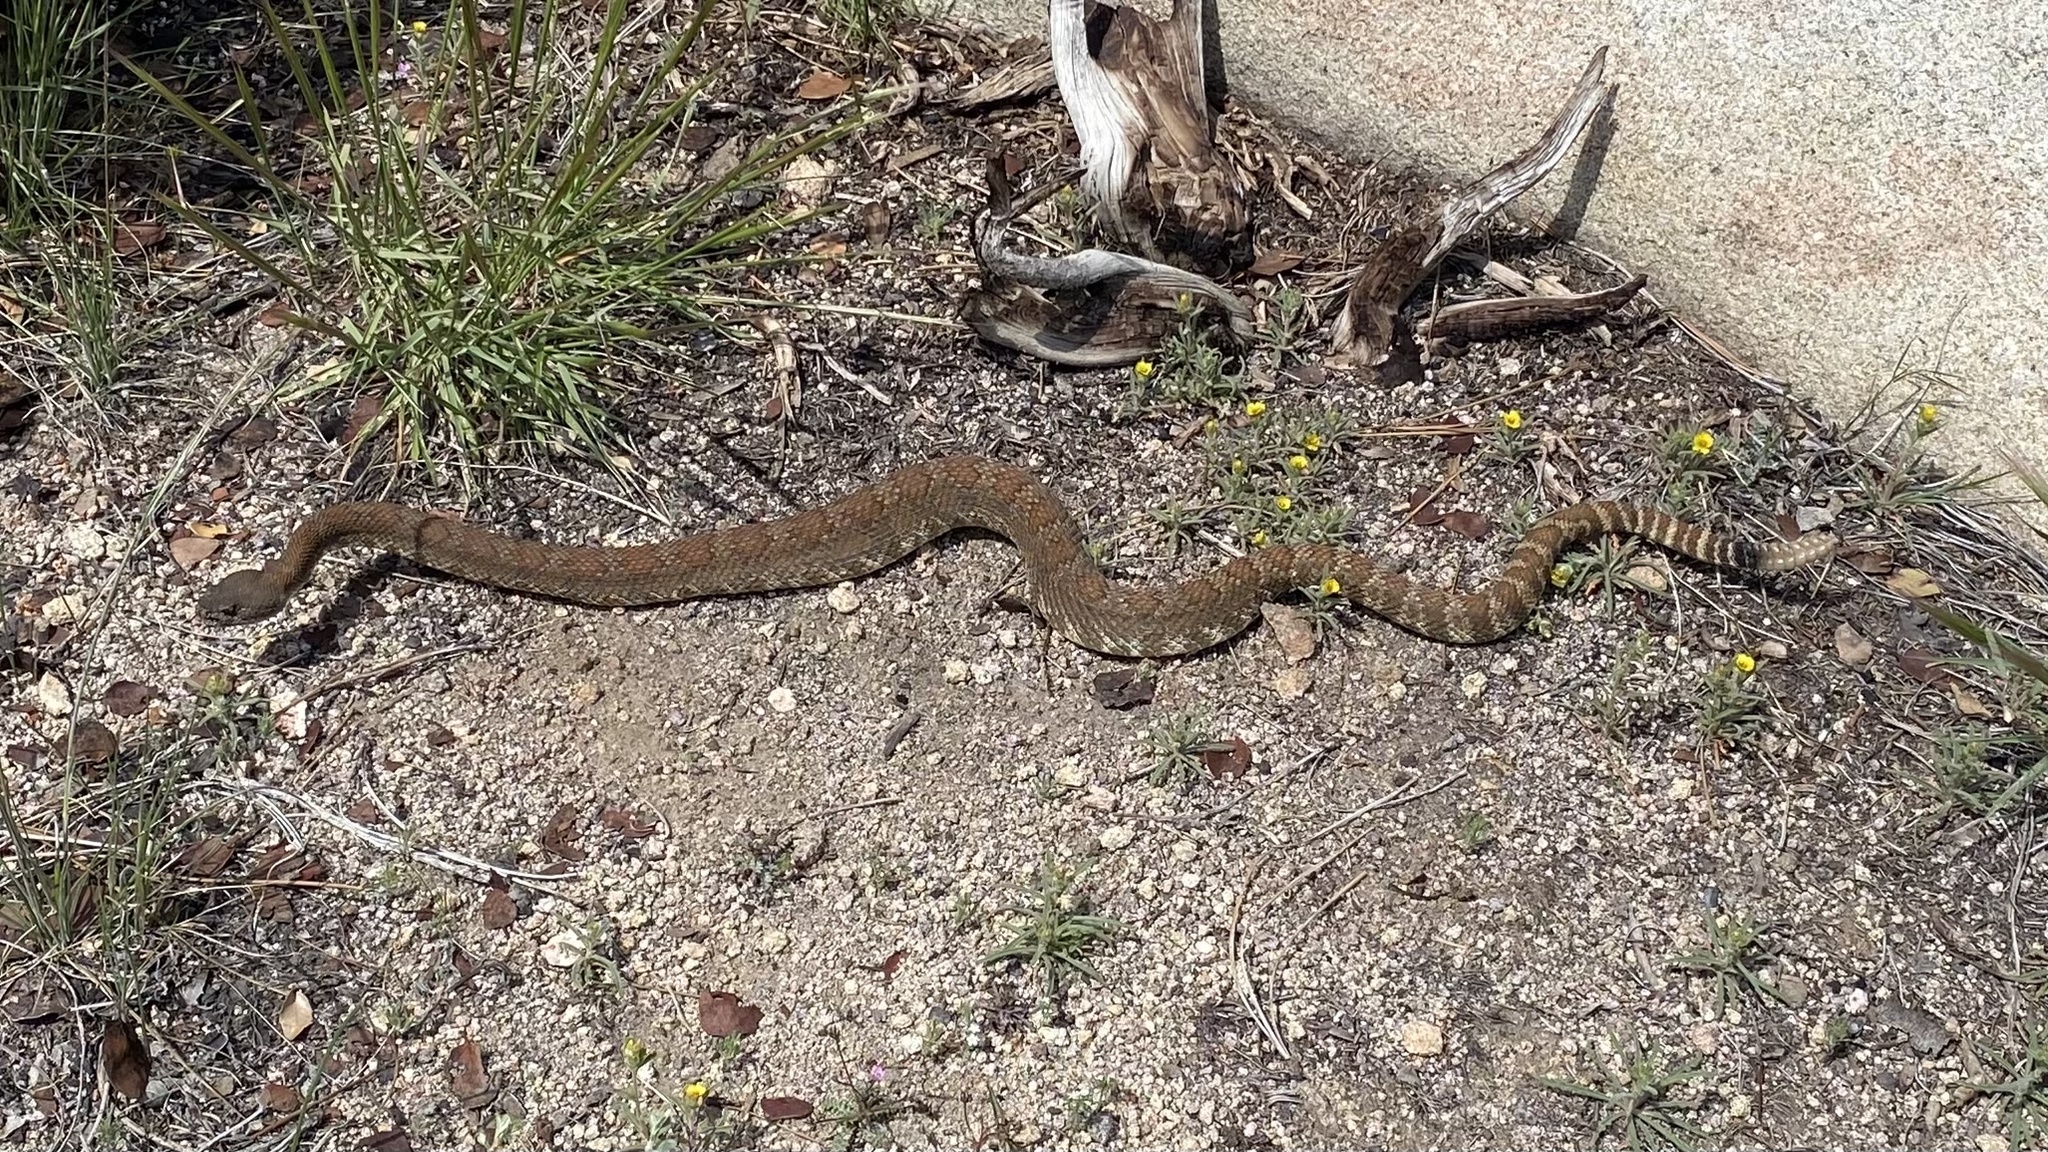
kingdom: Animalia
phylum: Chordata
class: Squamata
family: Viperidae
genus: Crotalus
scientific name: Crotalus oreganus
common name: Abyssus
